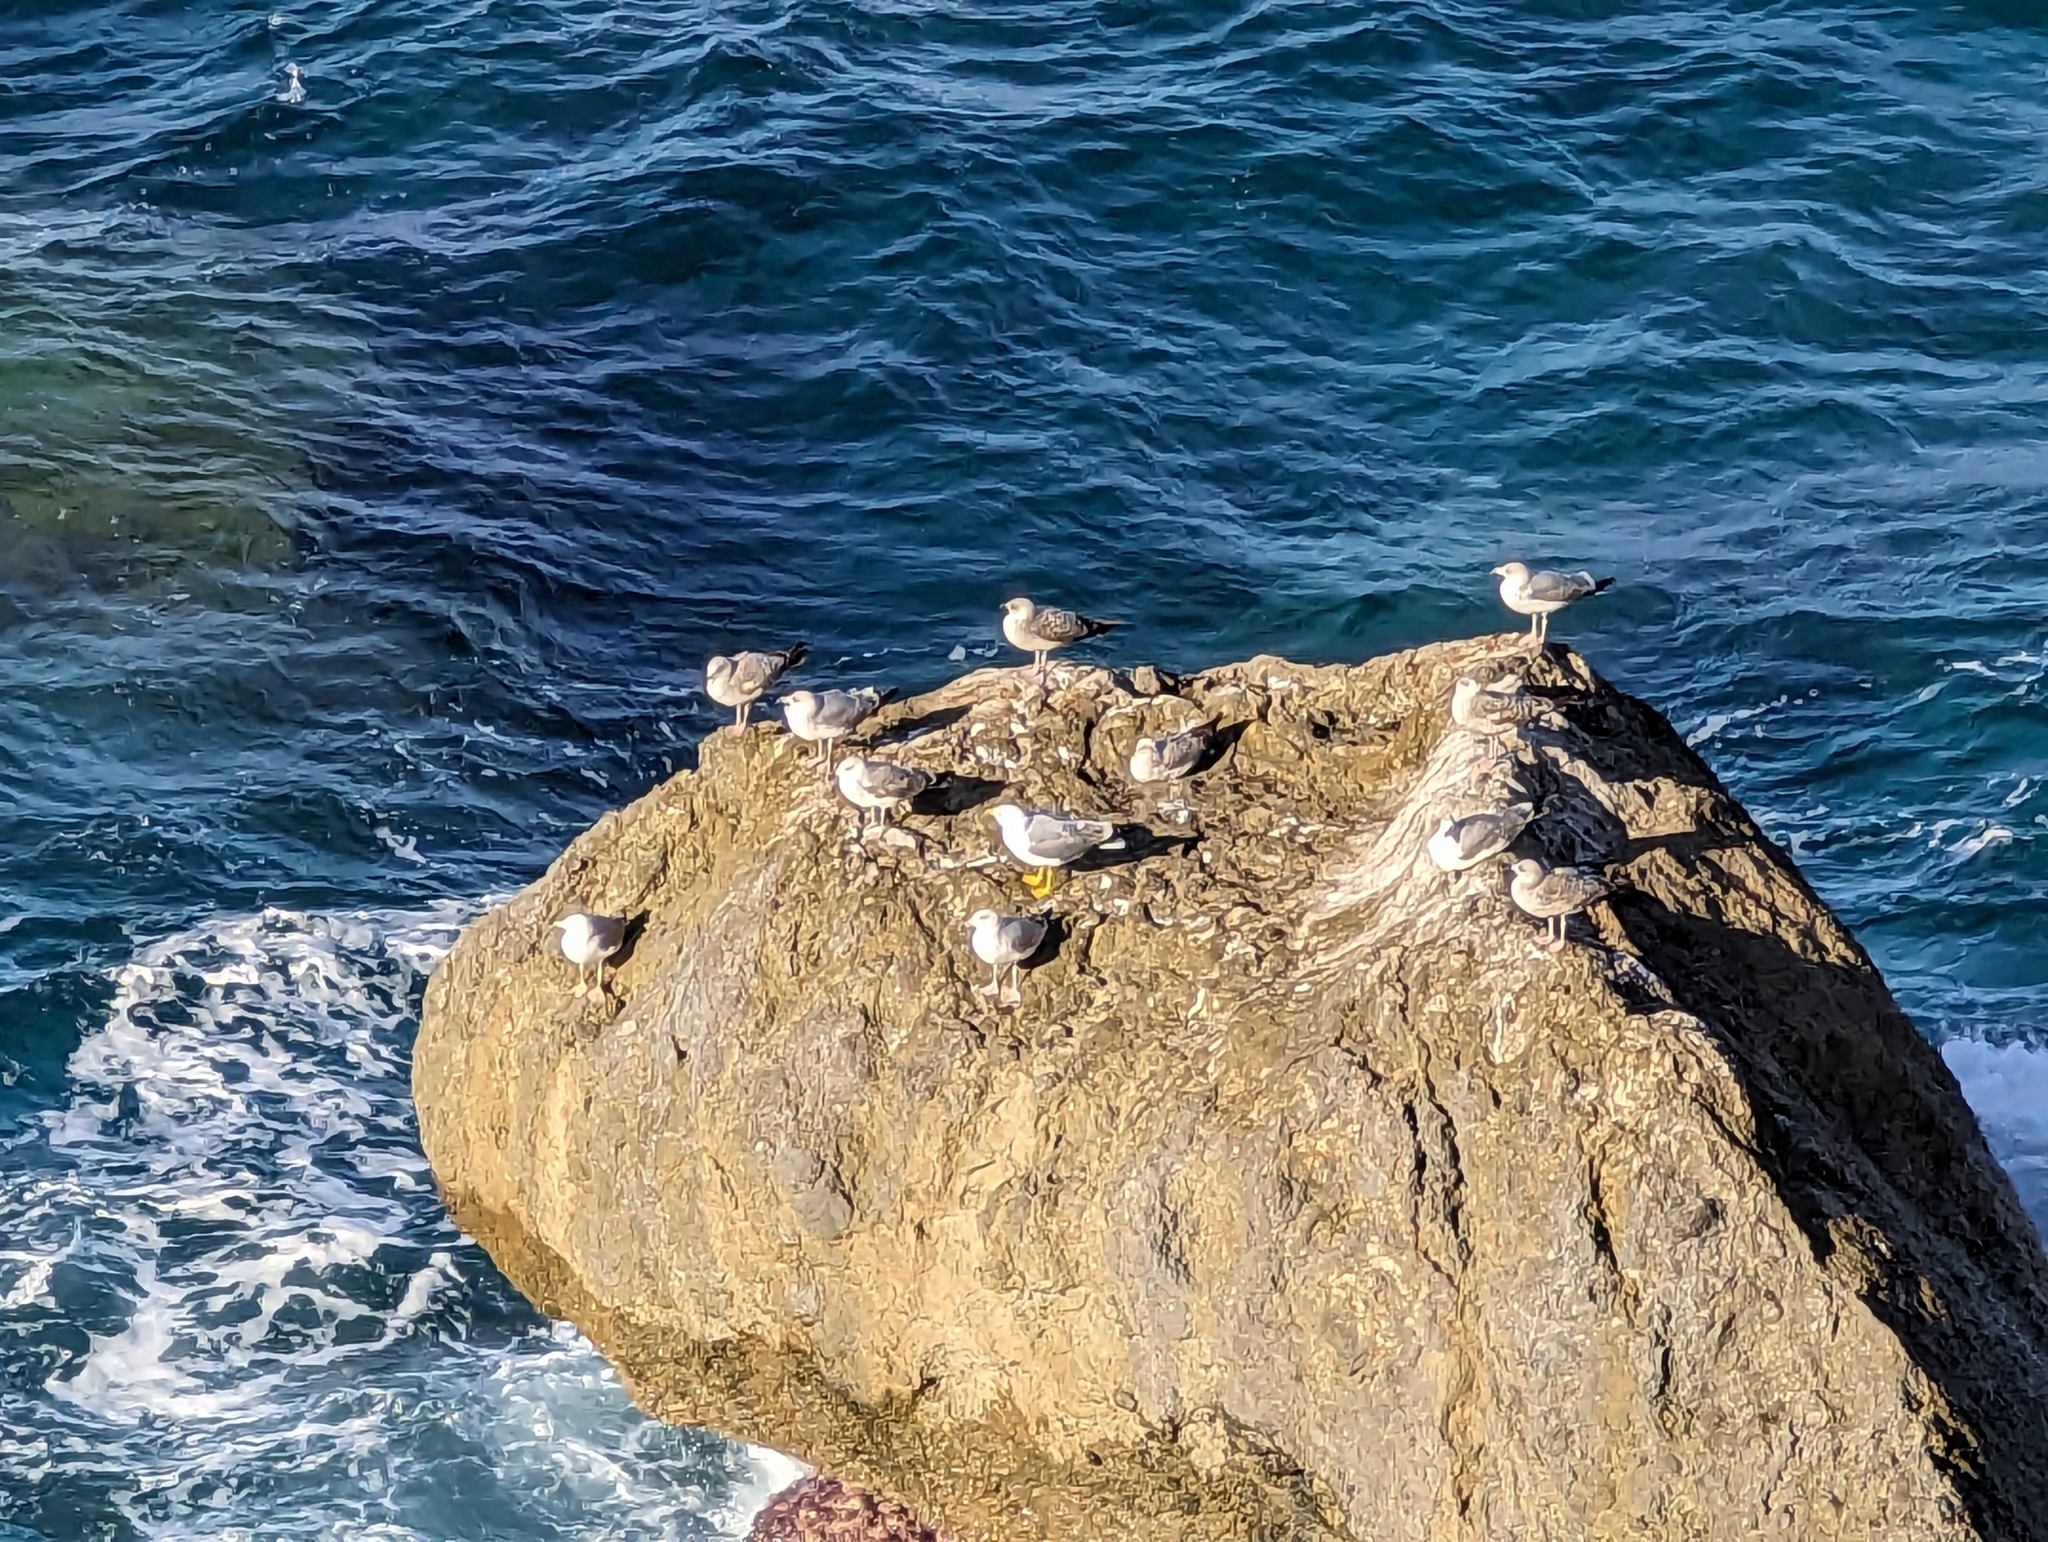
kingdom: Animalia
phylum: Chordata
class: Aves
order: Charadriiformes
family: Laridae
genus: Larus
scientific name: Larus michahellis
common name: Yellow-legged gull
